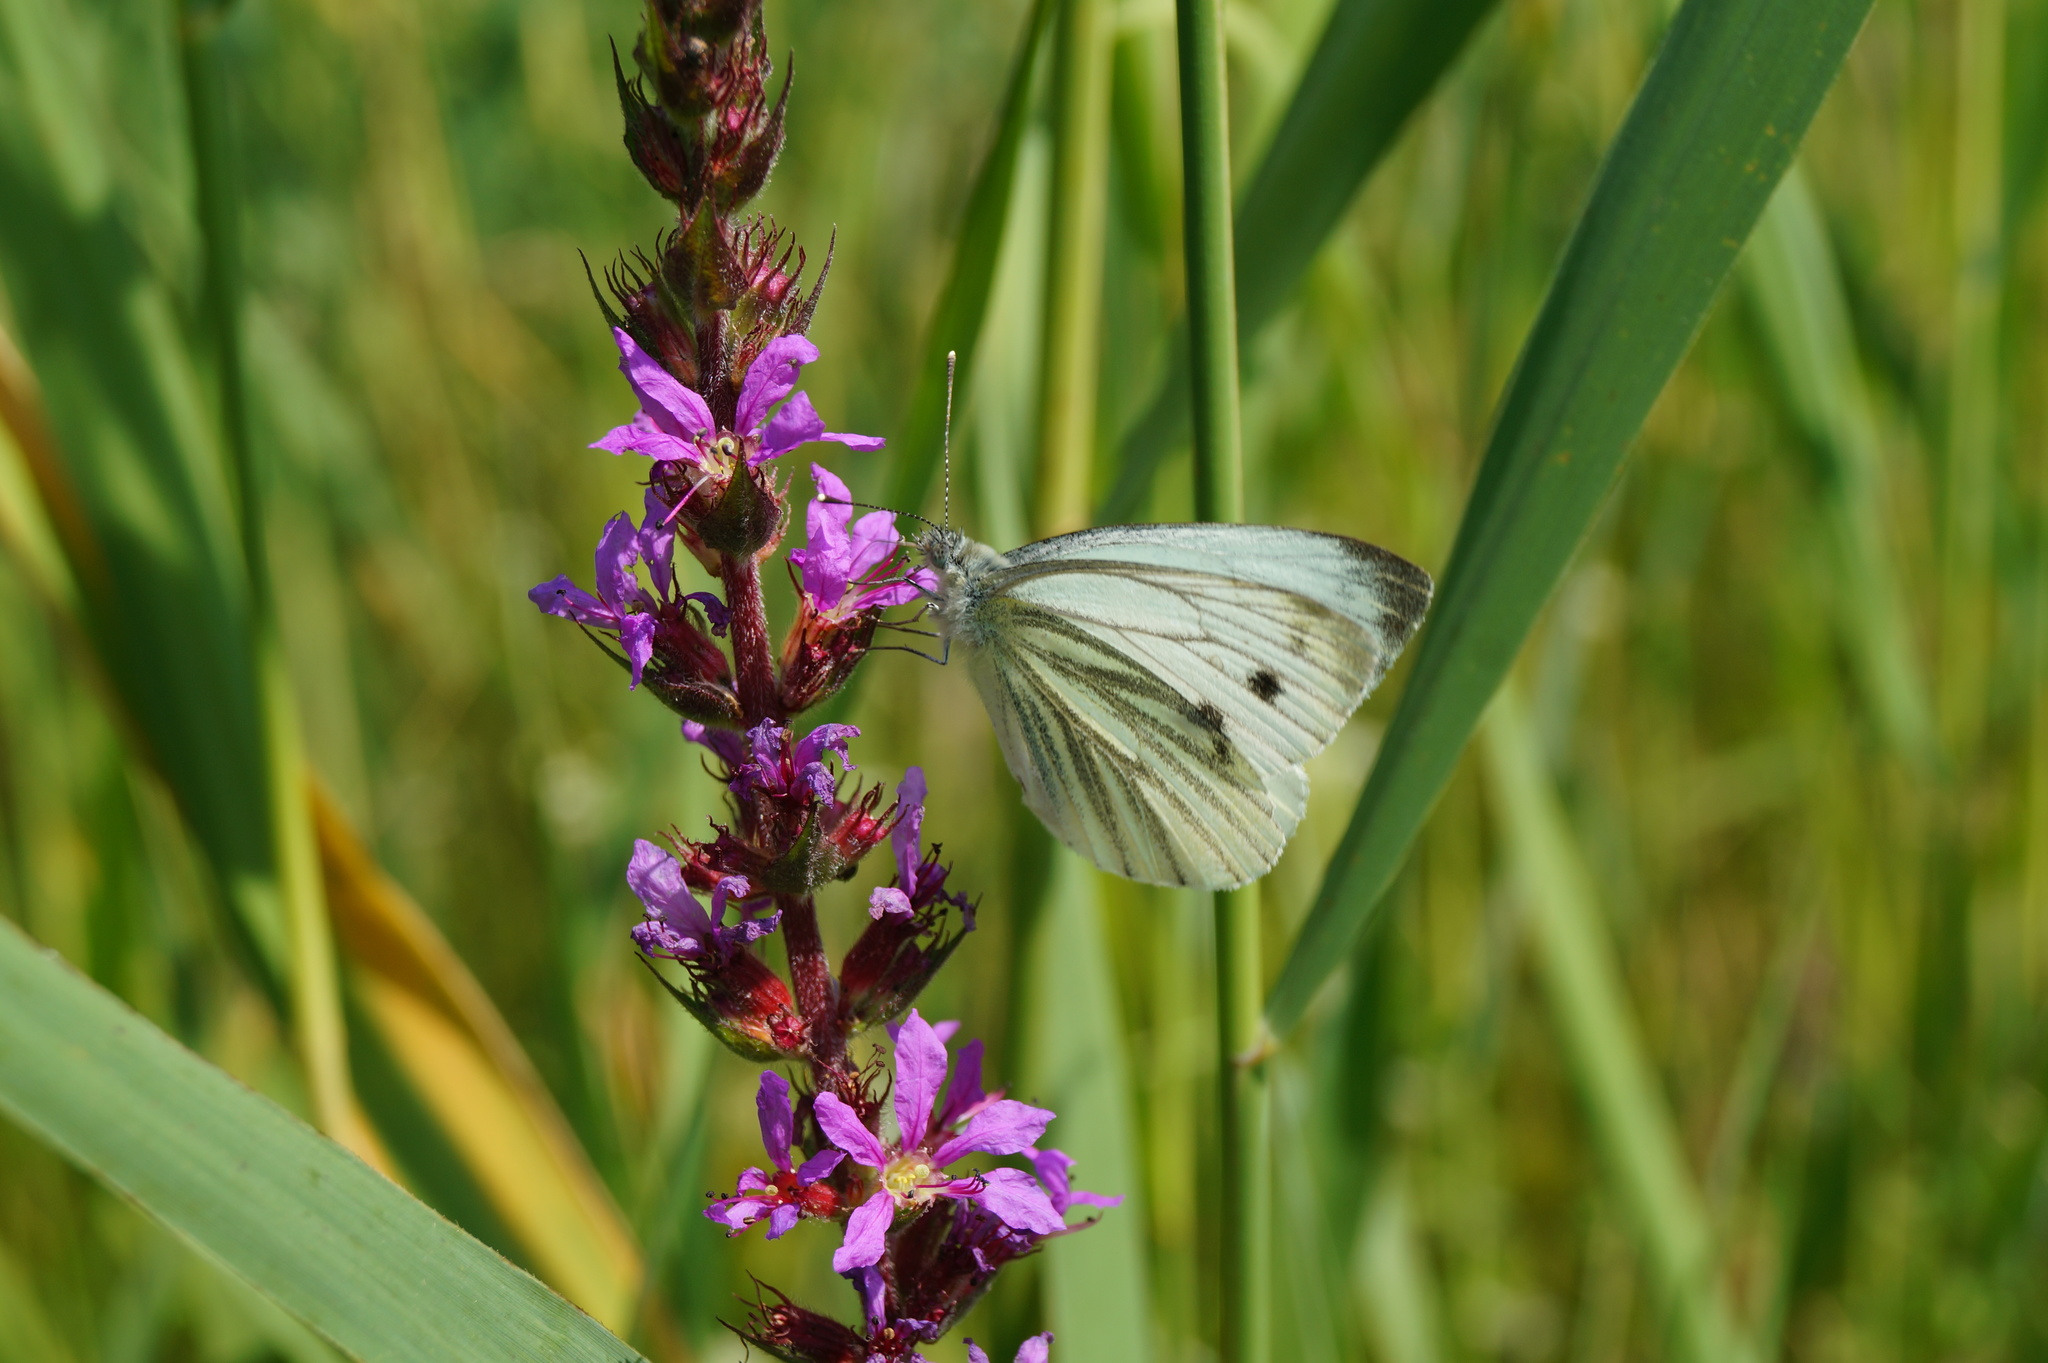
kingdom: Animalia
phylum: Arthropoda
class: Insecta
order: Lepidoptera
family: Pieridae
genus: Pieris
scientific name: Pieris napi
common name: Green-veined white
